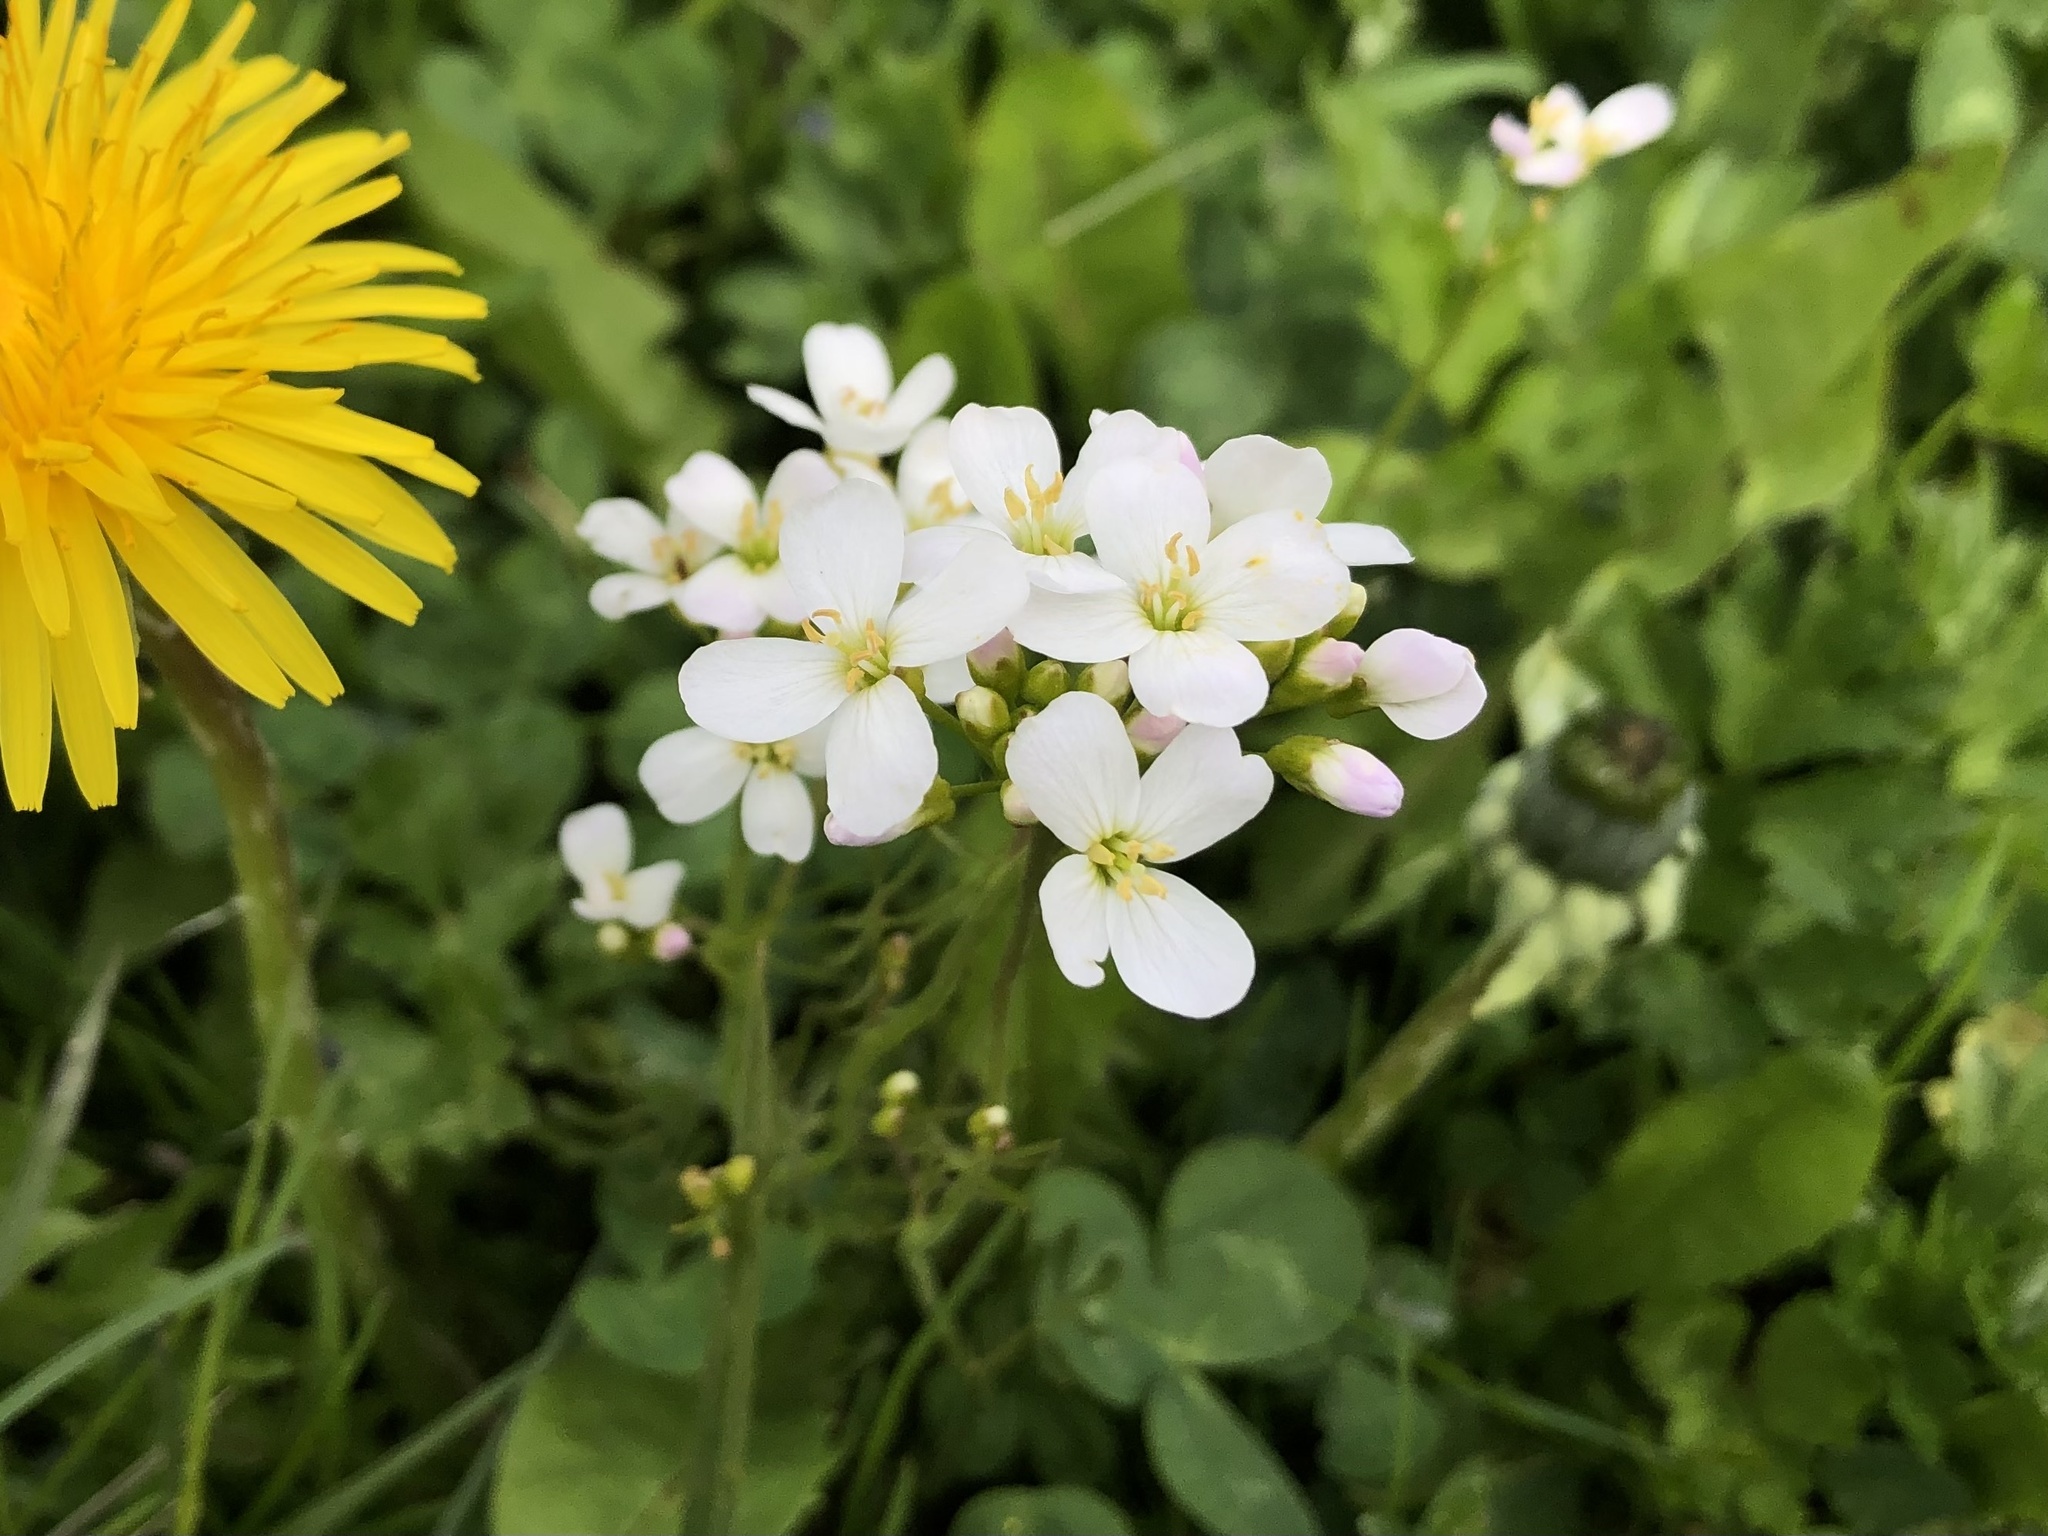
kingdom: Plantae
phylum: Tracheophyta
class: Magnoliopsida
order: Brassicales
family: Brassicaceae
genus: Cardamine
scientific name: Cardamine pratensis
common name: Cuckoo flower
